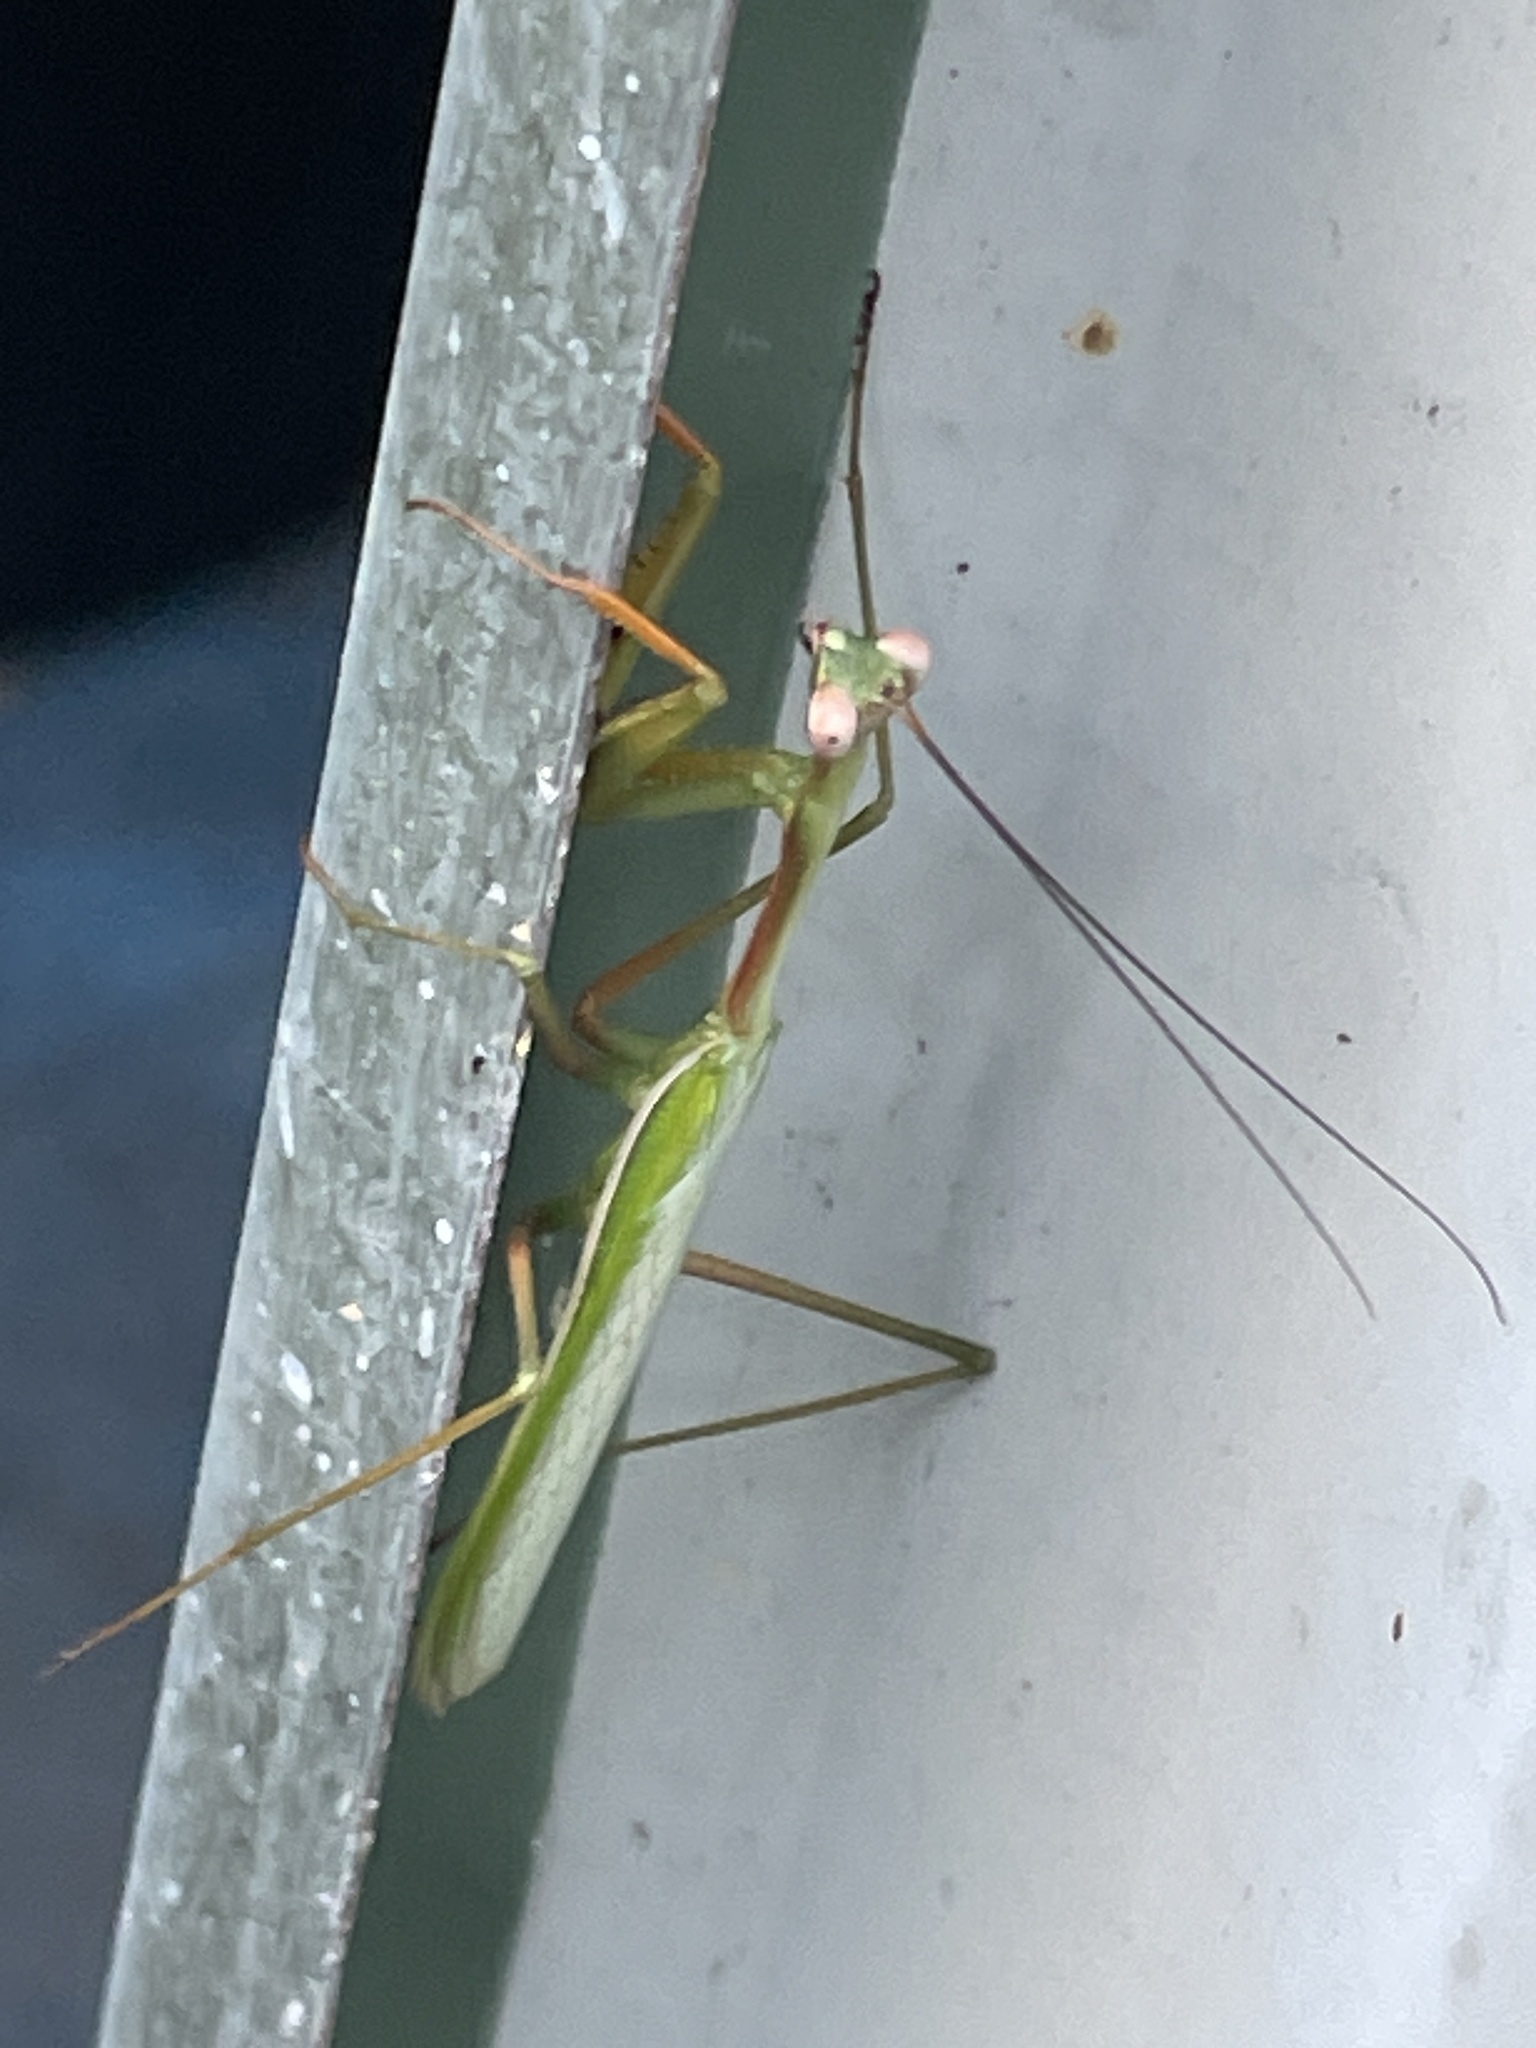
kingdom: Animalia
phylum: Arthropoda
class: Insecta
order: Mantodea
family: Mantidae
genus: Pseudomantis
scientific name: Pseudomantis albofimbriata
